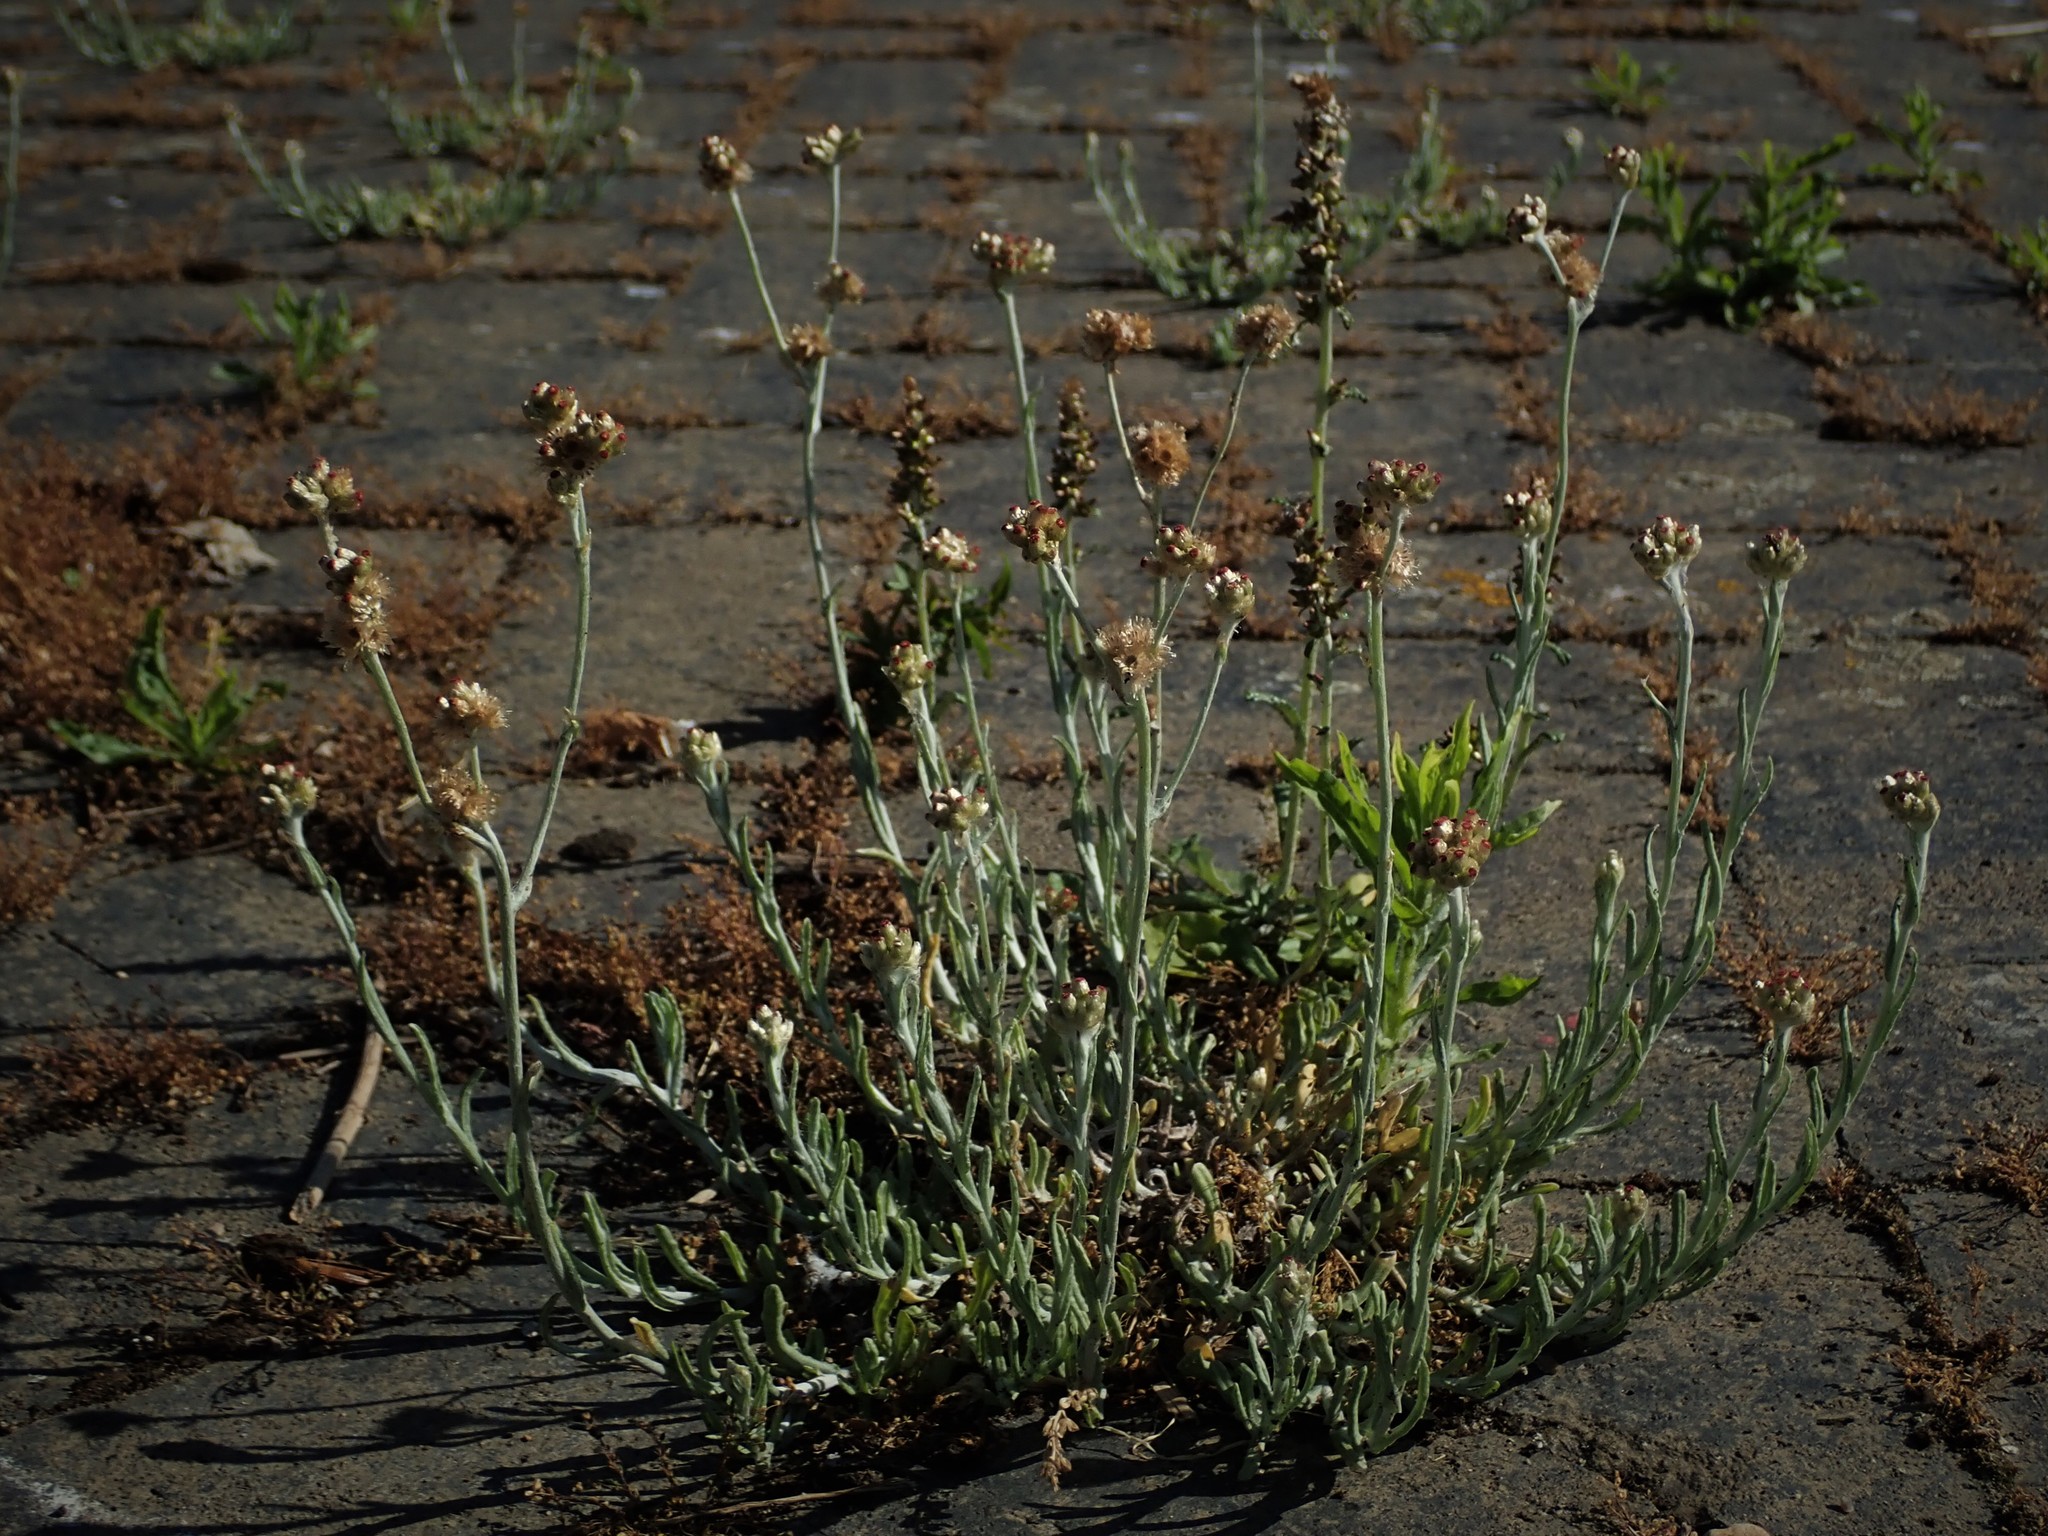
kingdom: Plantae
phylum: Tracheophyta
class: Magnoliopsida
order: Asterales
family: Asteraceae
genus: Helichrysum
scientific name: Helichrysum luteoalbum
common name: Daisy
